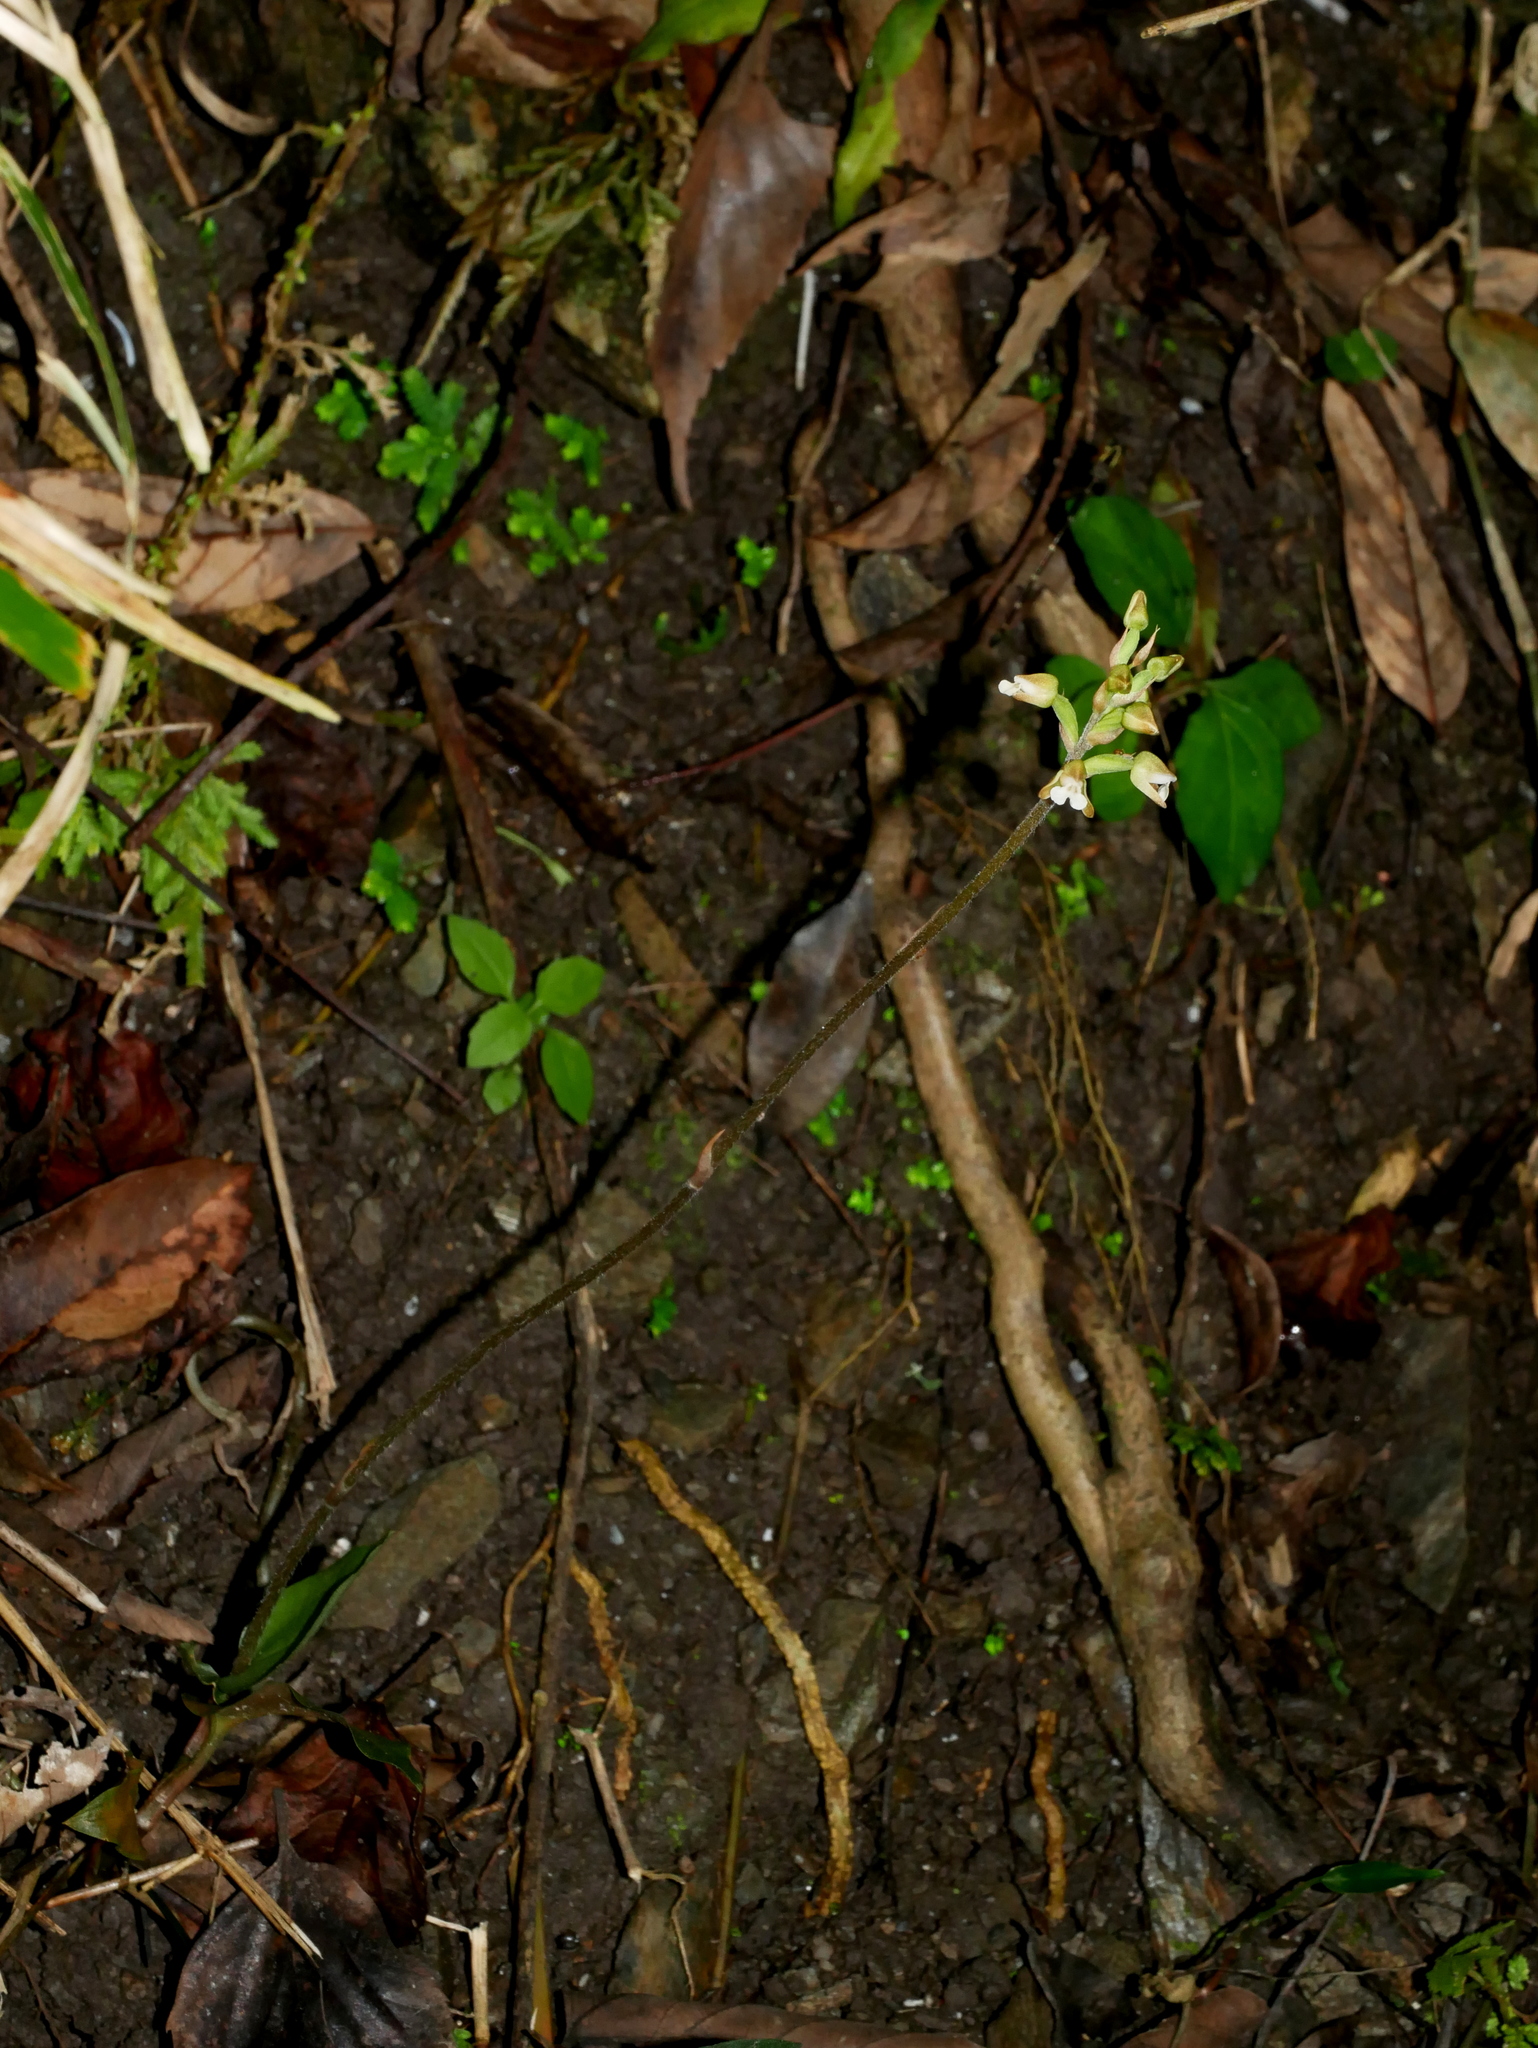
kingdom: Plantae
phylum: Tracheophyta
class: Liliopsida
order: Asparagales
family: Orchidaceae
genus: Zeuxine
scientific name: Zeuxine nervosa
